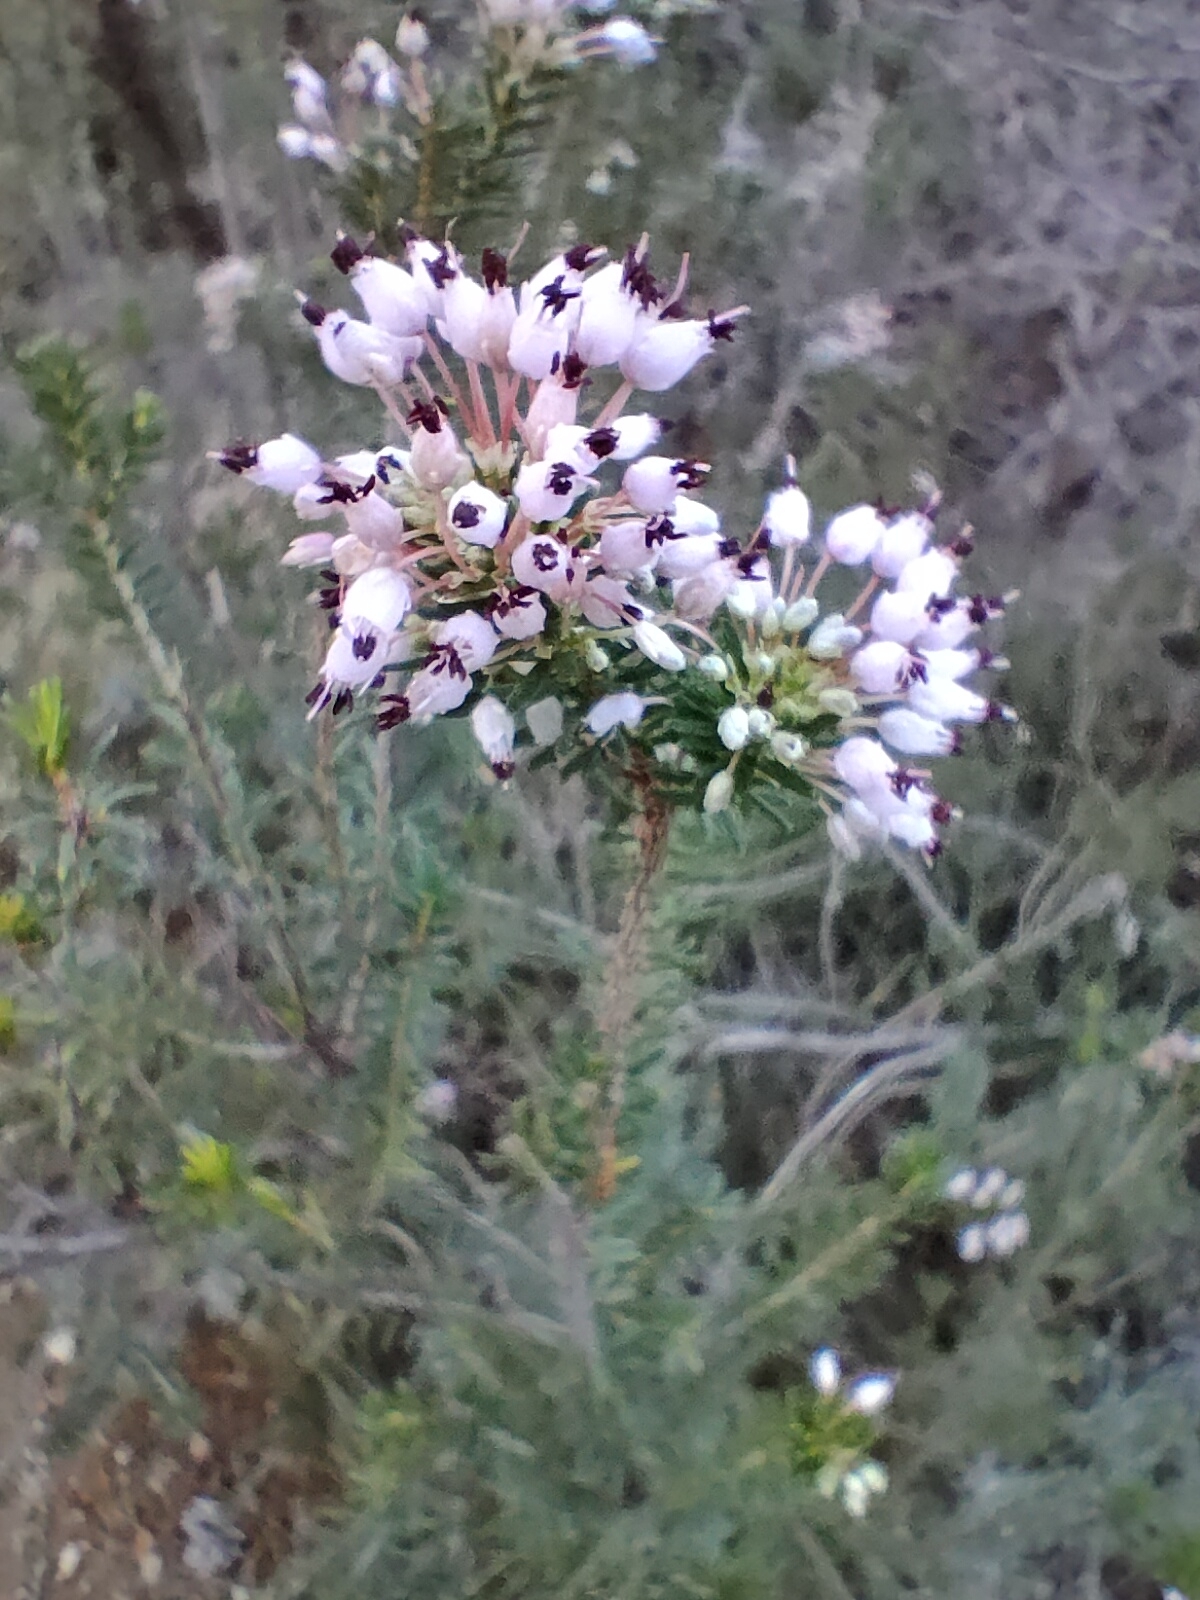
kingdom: Plantae
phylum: Tracheophyta
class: Magnoliopsida
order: Ericales
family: Ericaceae
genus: Erica
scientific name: Erica multiflora
